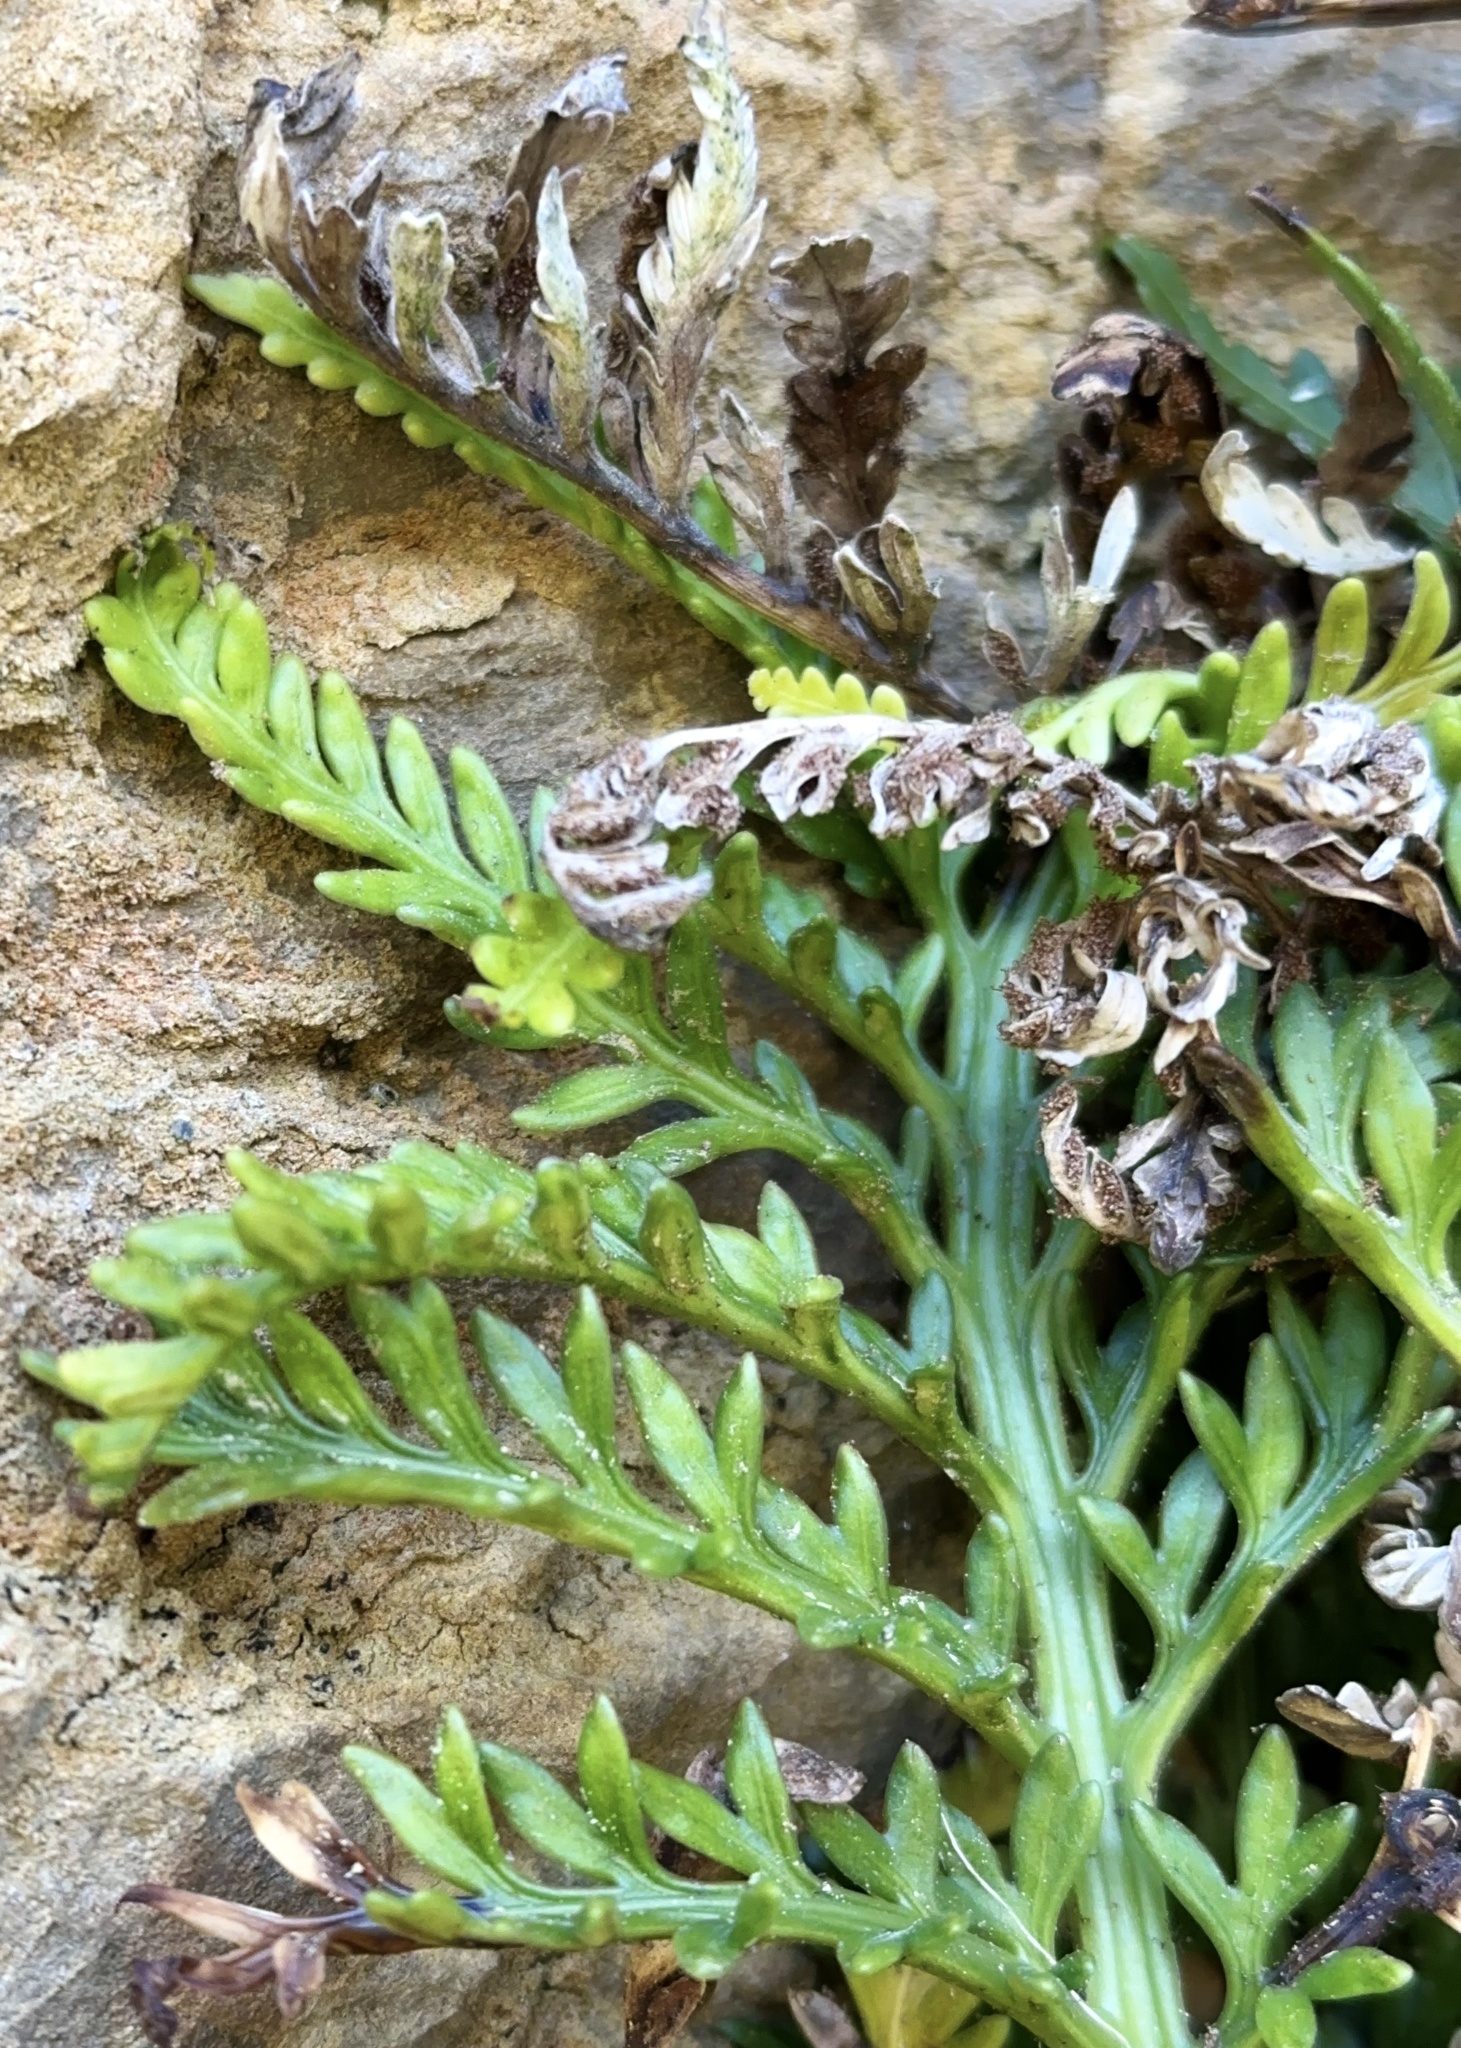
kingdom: Plantae
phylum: Tracheophyta
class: Polypodiopsida
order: Polypodiales
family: Aspleniaceae
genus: Asplenium
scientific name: Asplenium appendiculatum
